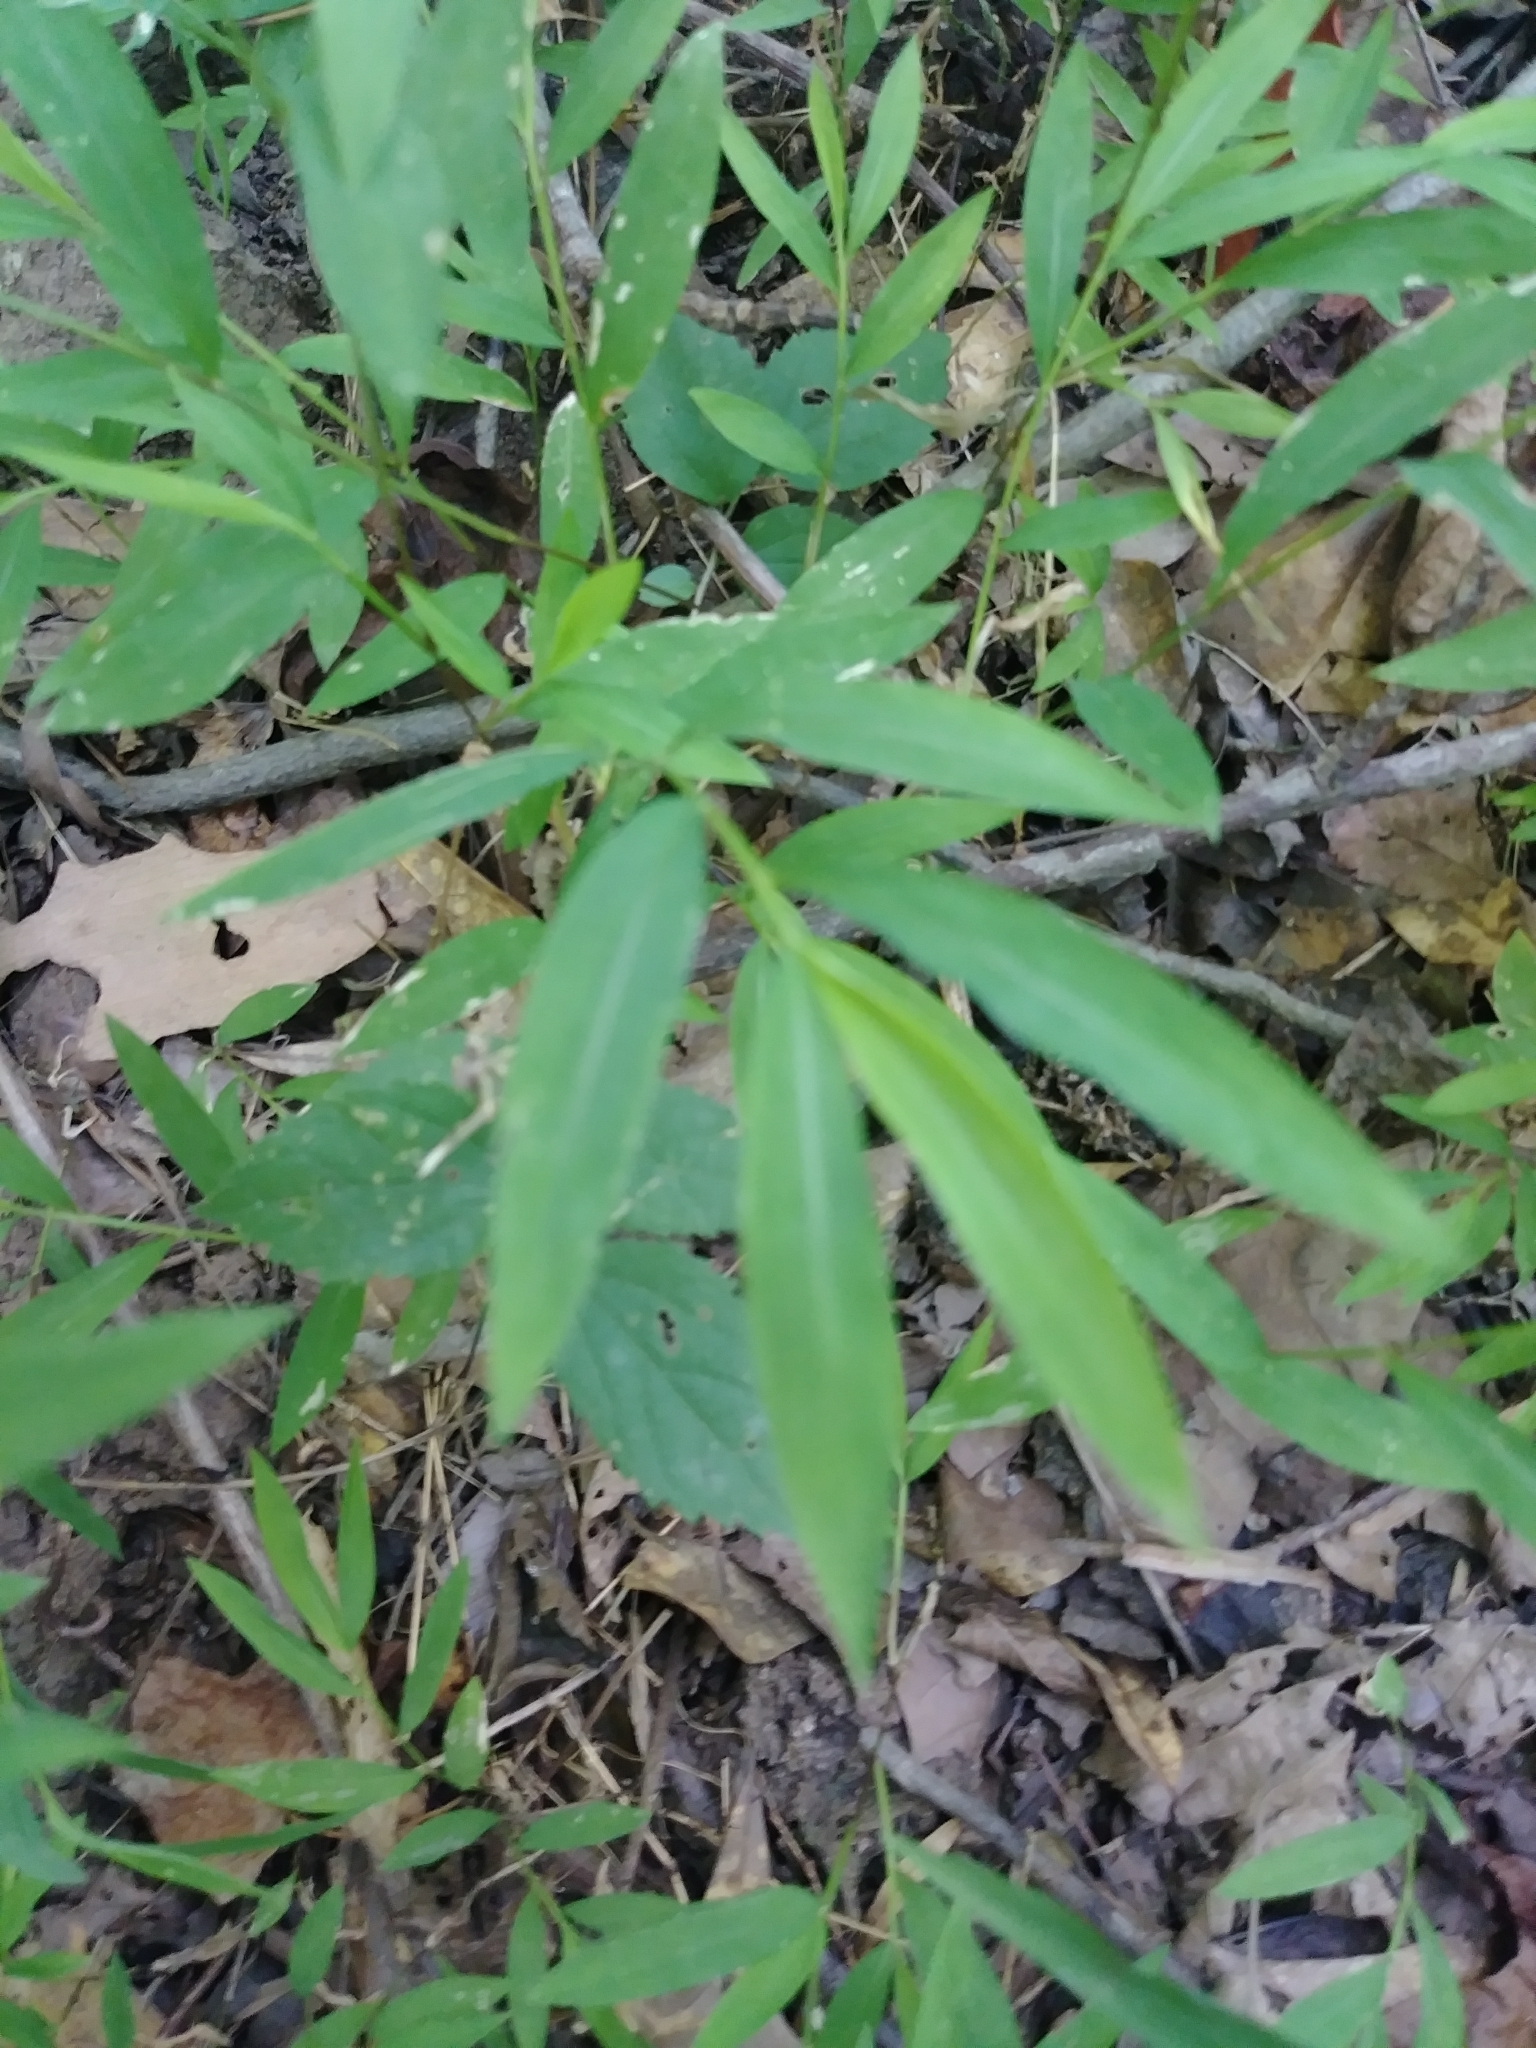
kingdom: Plantae
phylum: Tracheophyta
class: Liliopsida
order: Poales
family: Poaceae
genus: Microstegium
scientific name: Microstegium vimineum
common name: Japanese stiltgrass
